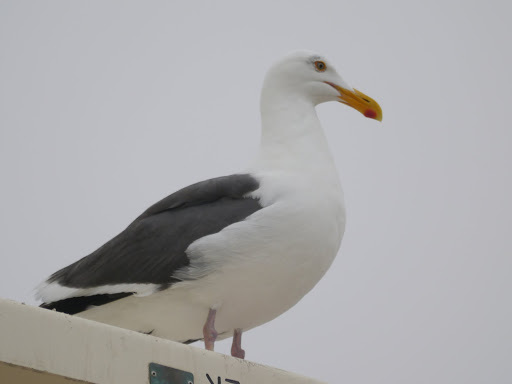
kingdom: Animalia
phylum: Chordata
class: Aves
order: Charadriiformes
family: Laridae
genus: Larus
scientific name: Larus occidentalis
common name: Western gull
